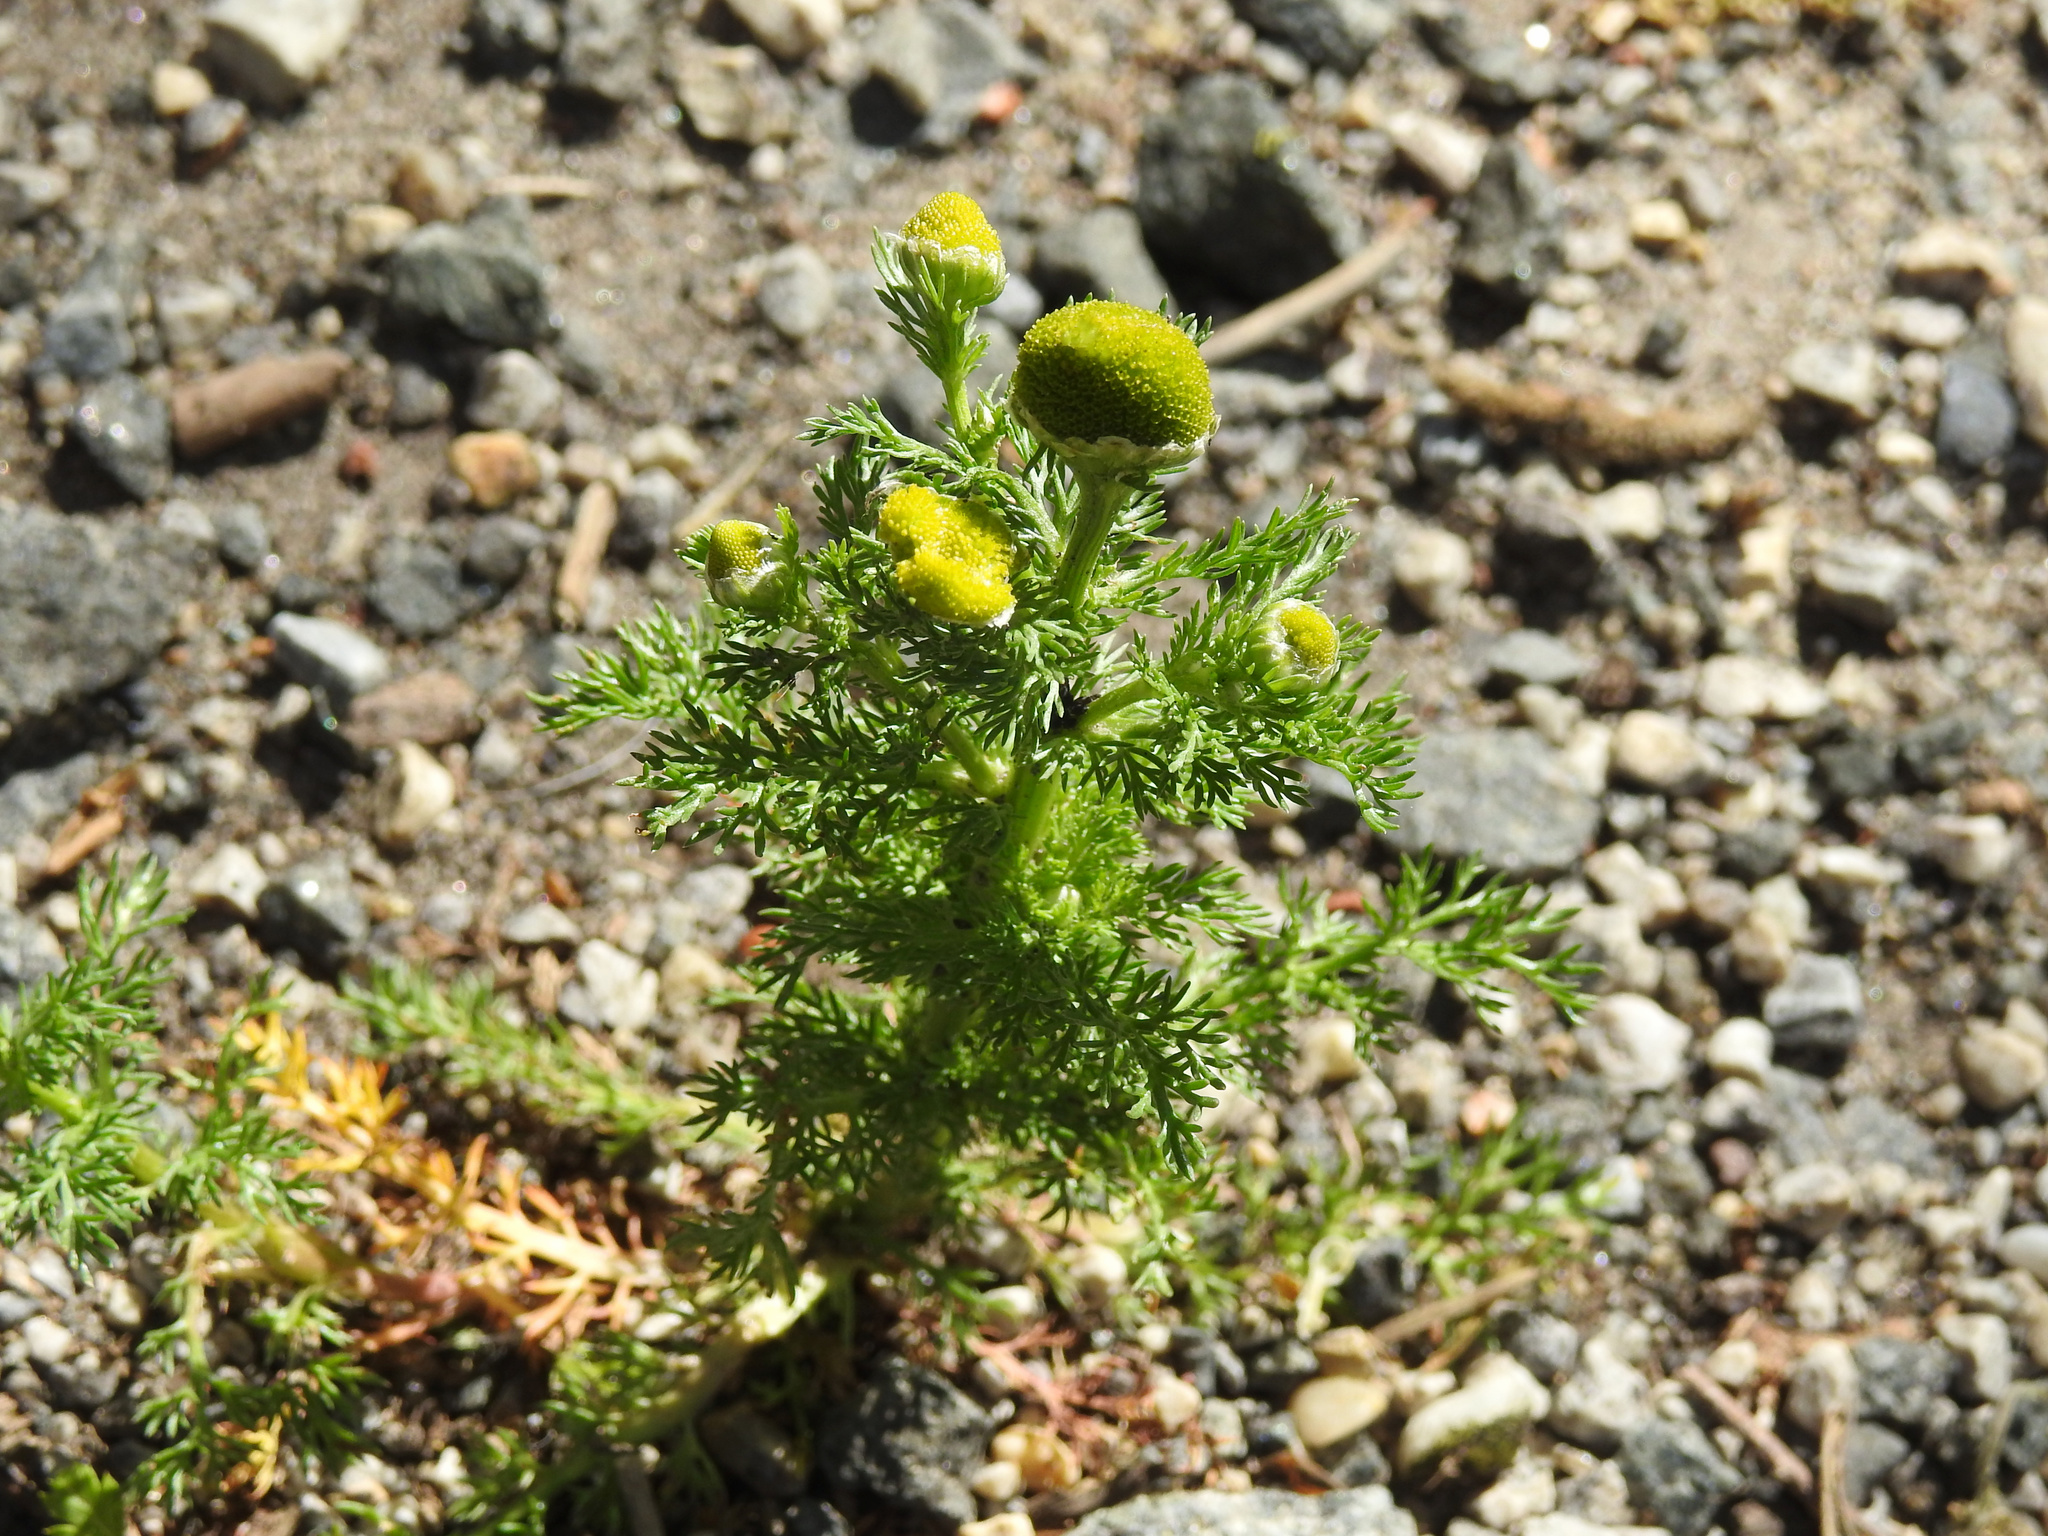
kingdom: Plantae
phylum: Tracheophyta
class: Magnoliopsida
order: Asterales
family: Asteraceae
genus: Matricaria
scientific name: Matricaria discoidea
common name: Disc mayweed
